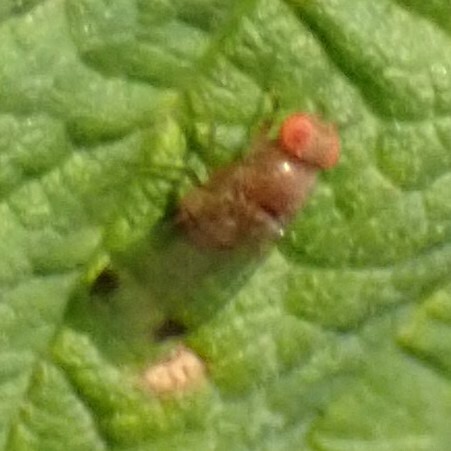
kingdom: Animalia
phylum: Arthropoda
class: Insecta
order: Diptera
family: Drosophilidae
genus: Drosophila
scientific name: Drosophila suzukii
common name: Spotted-wing drosophila
